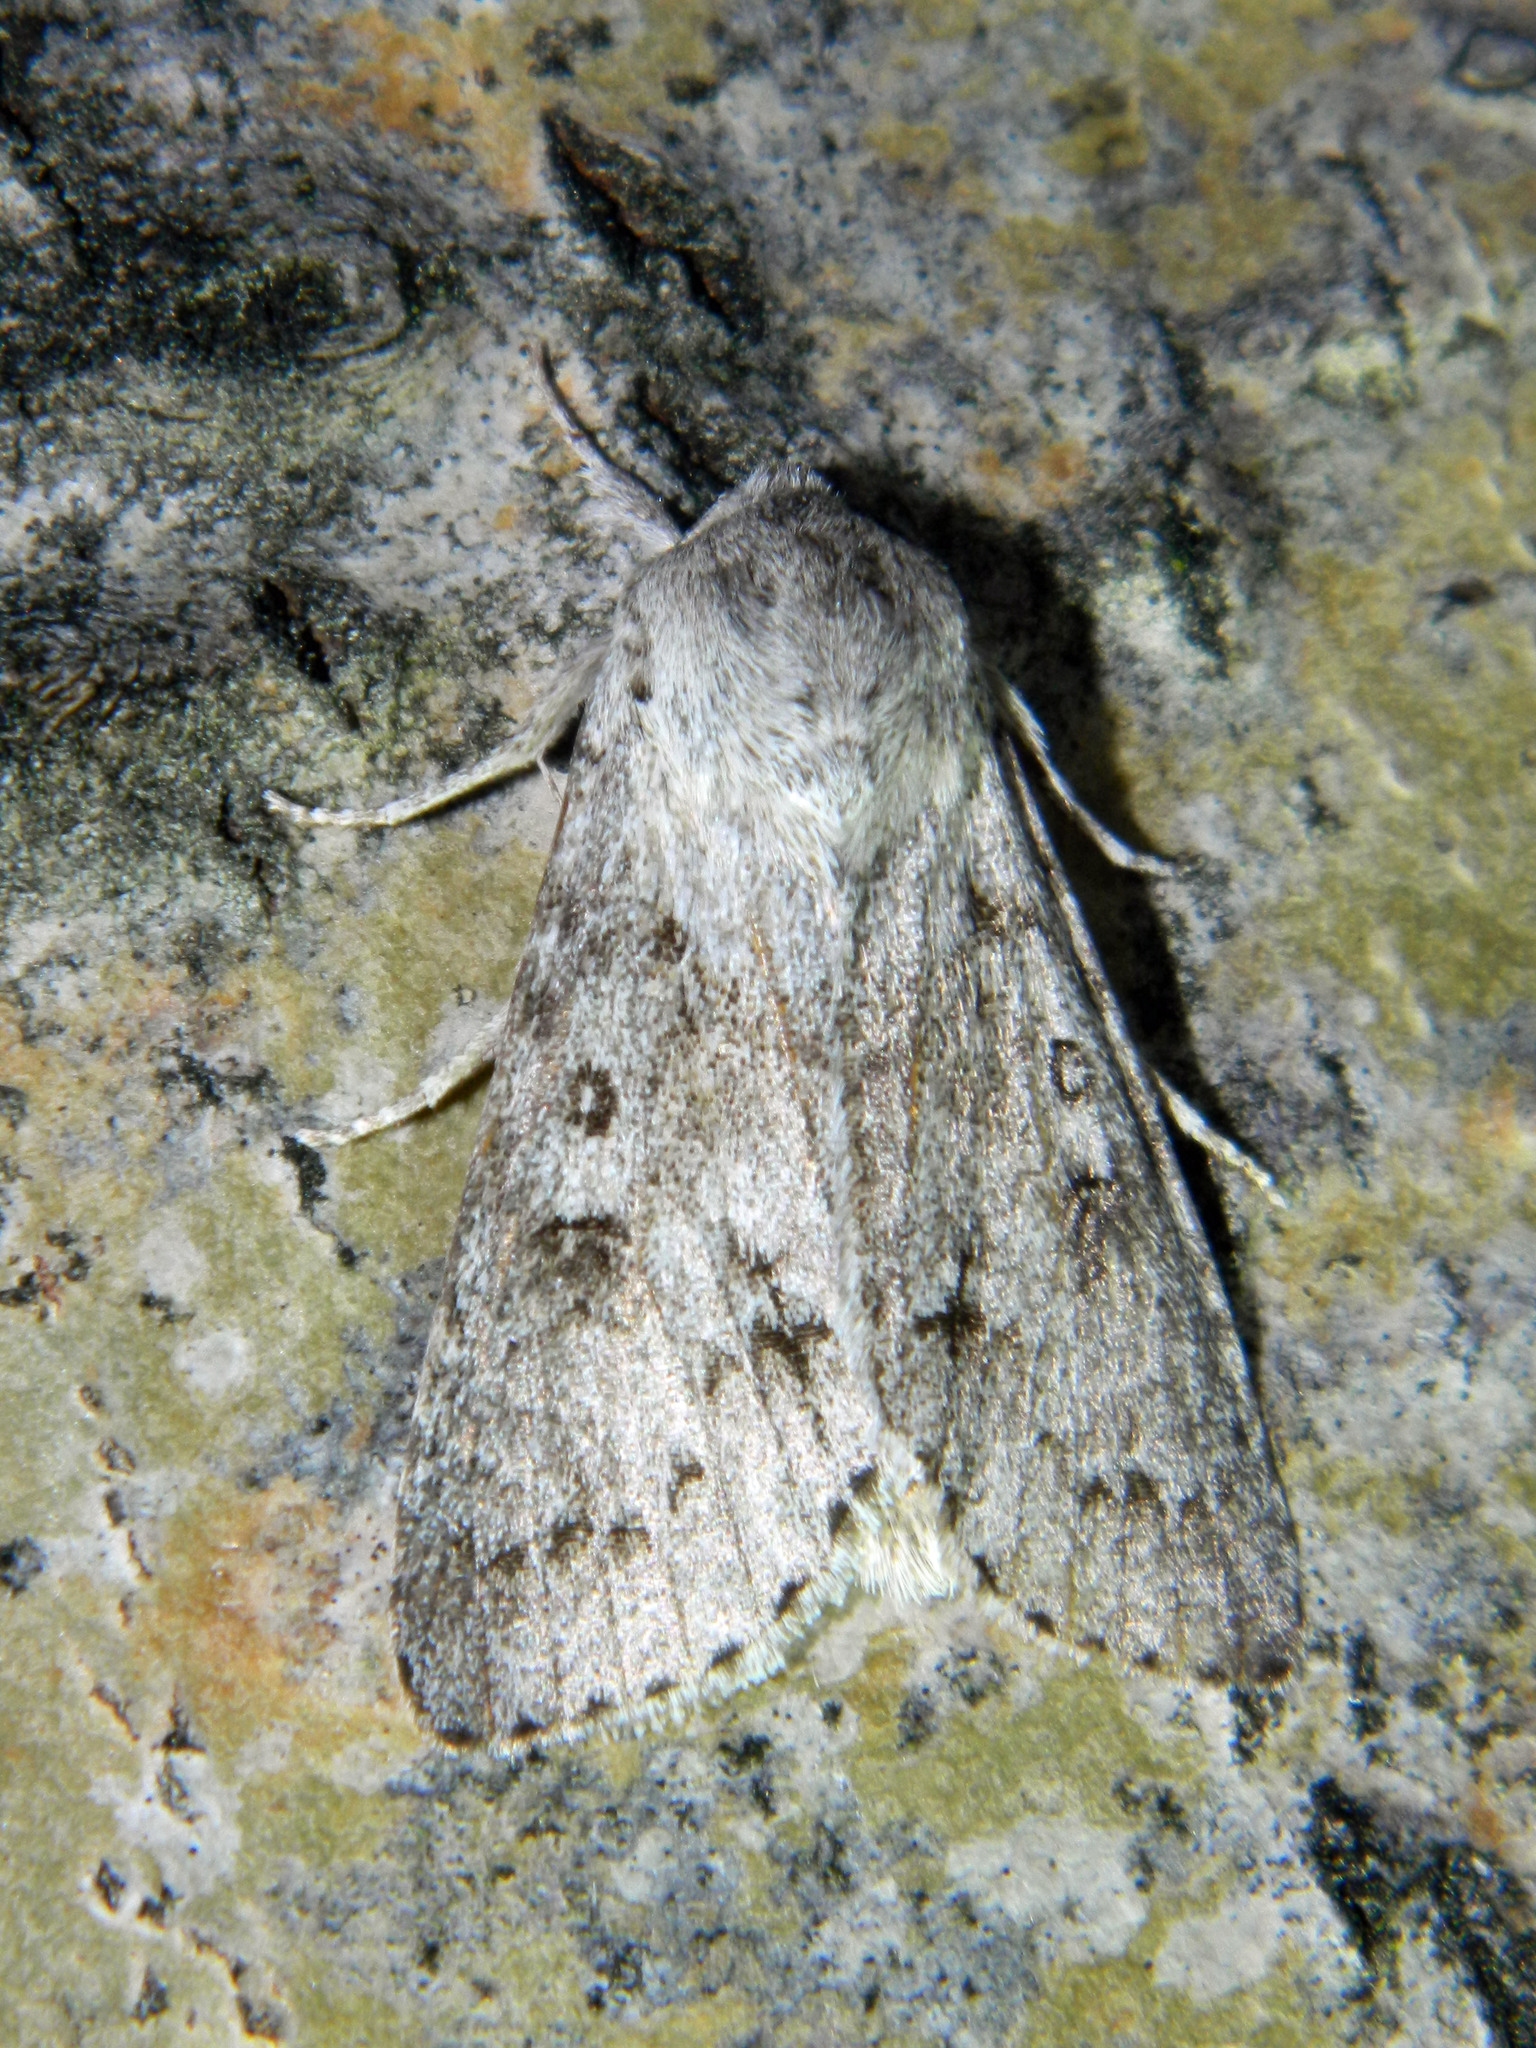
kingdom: Animalia
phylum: Arthropoda
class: Insecta
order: Lepidoptera
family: Noctuidae
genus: Acronicta
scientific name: Acronicta insita
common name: Large gray dagger
